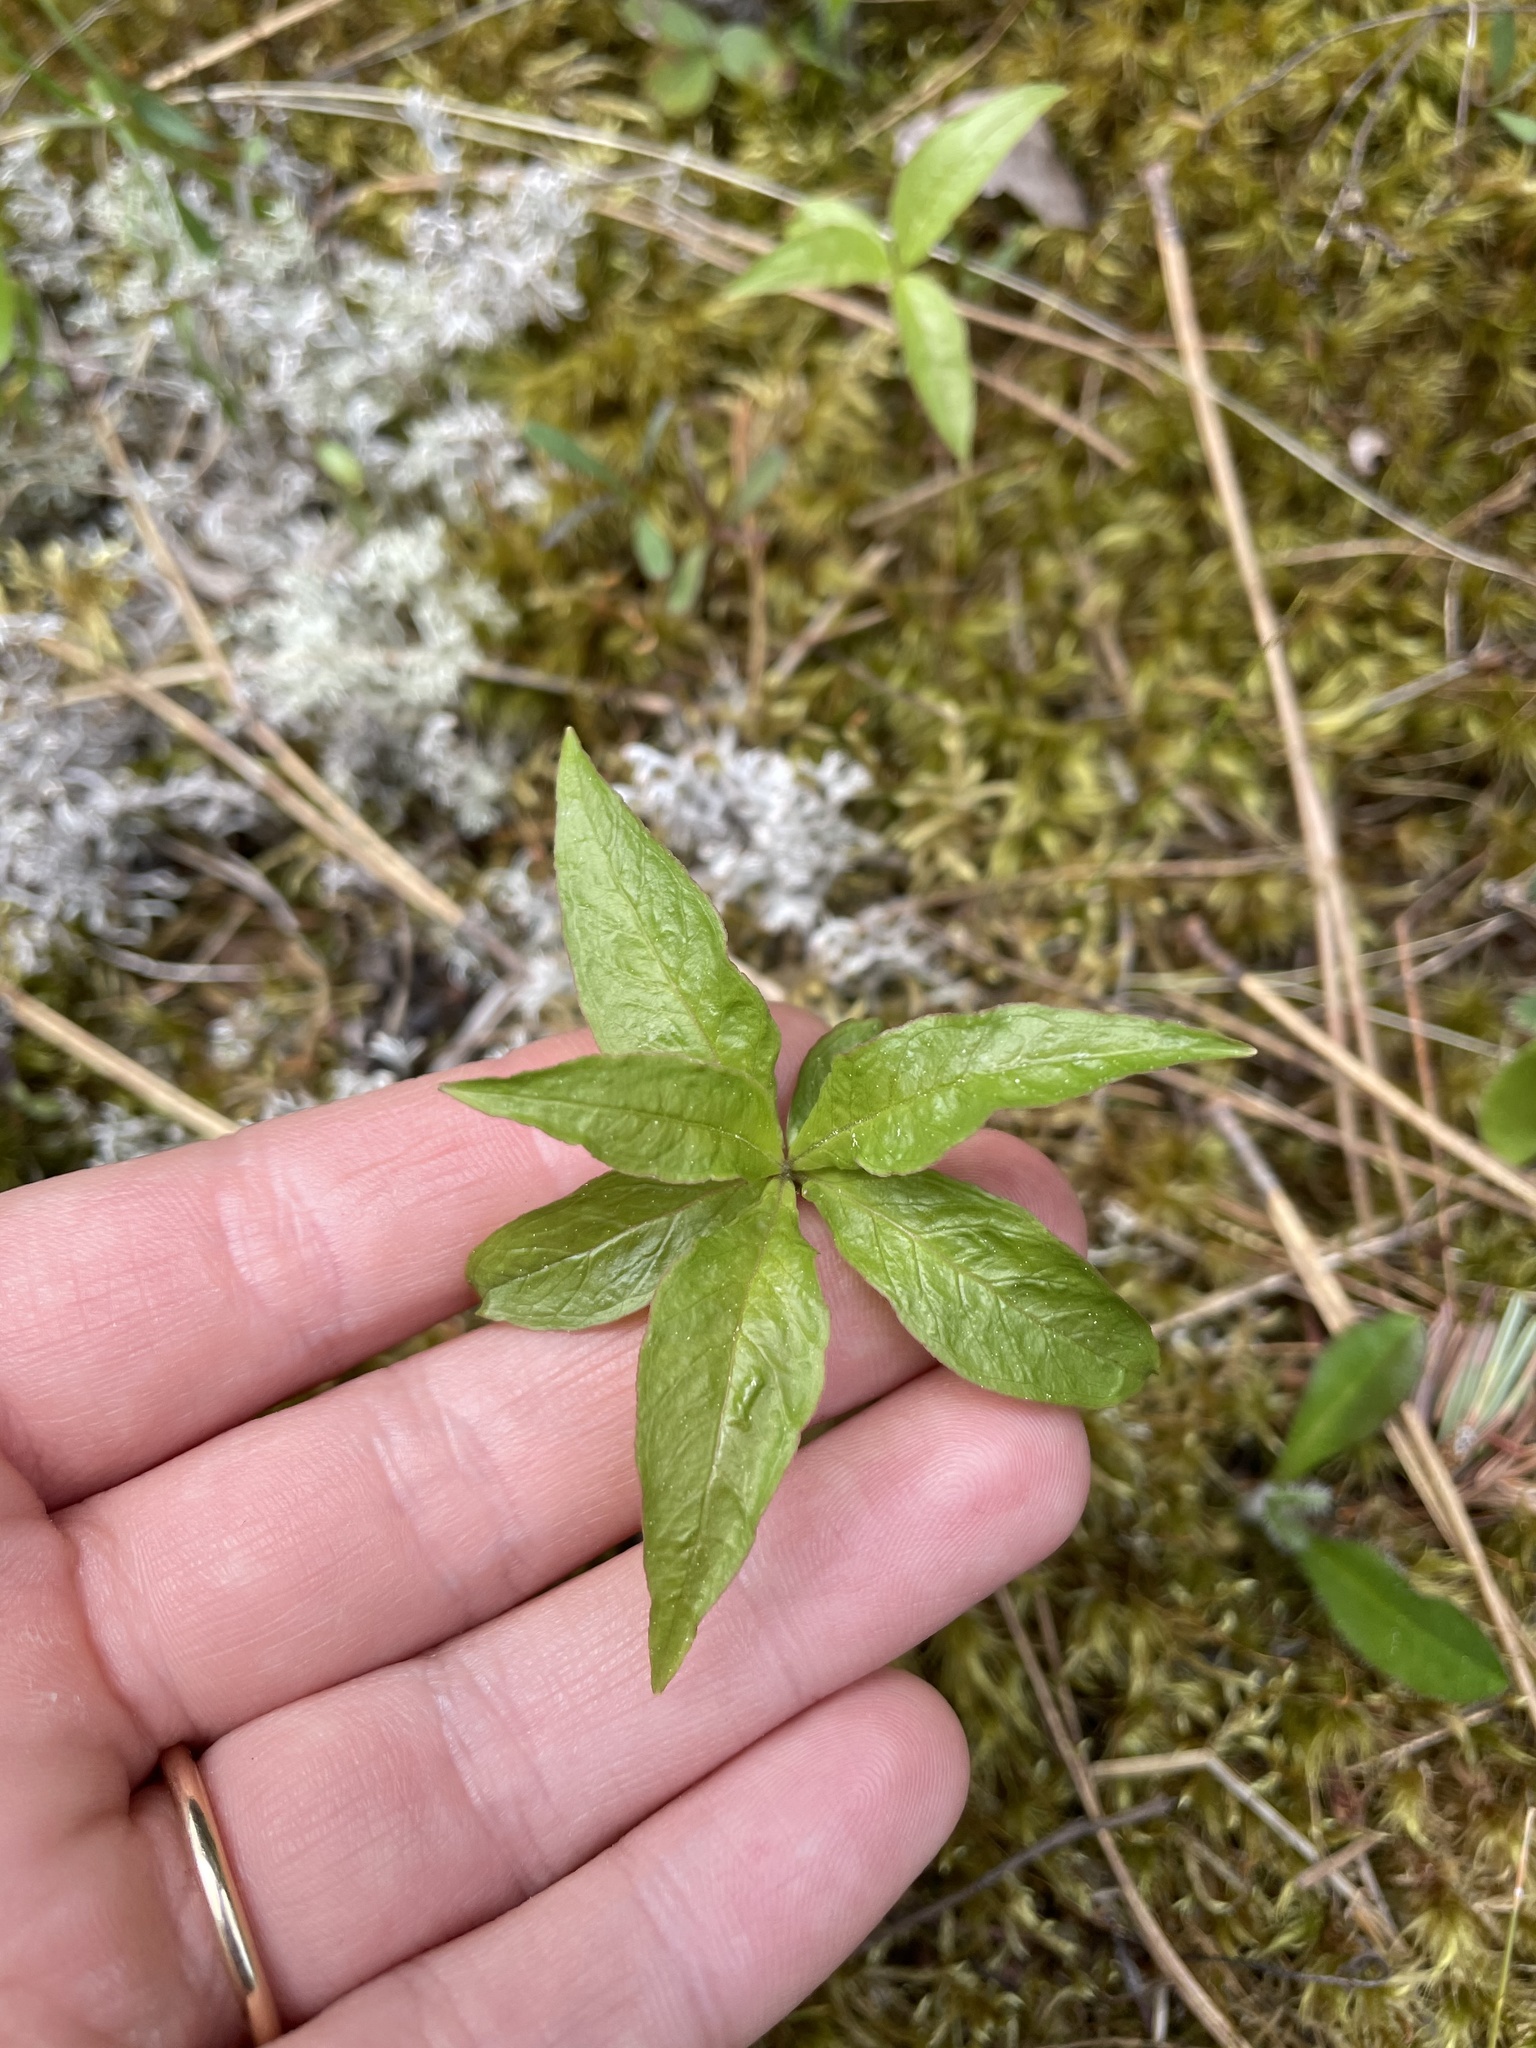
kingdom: Plantae
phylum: Tracheophyta
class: Magnoliopsida
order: Ericales
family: Primulaceae
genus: Lysimachia
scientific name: Lysimachia borealis
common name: American starflower
